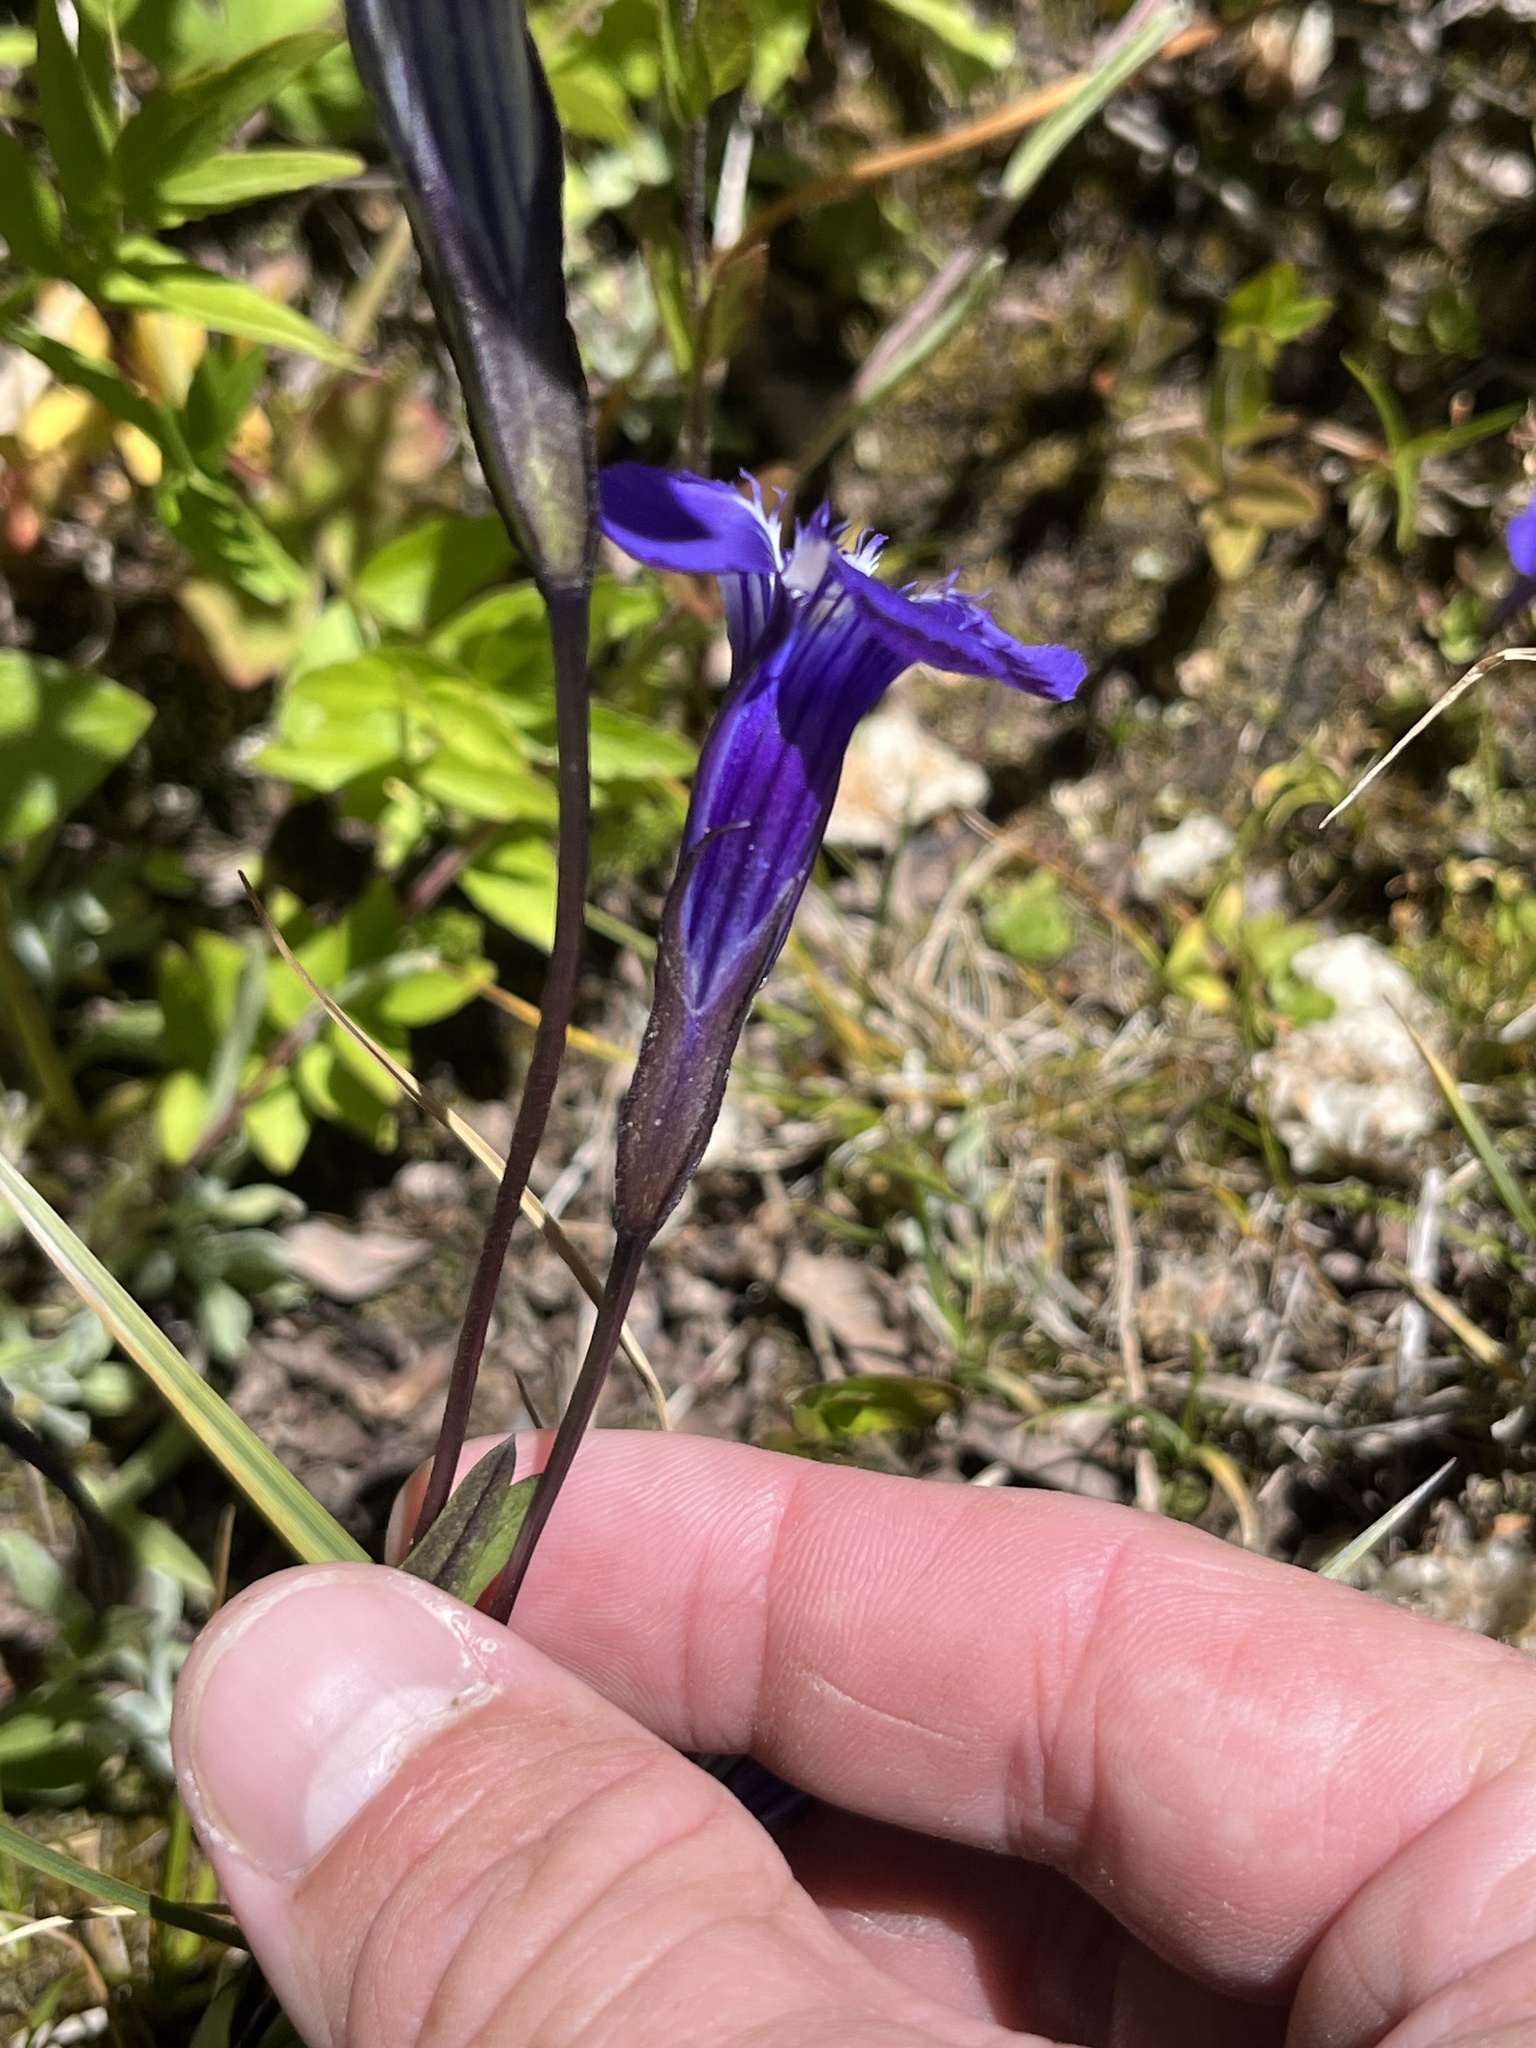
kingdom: Plantae
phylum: Tracheophyta
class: Magnoliopsida
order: Gentianales
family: Gentianaceae
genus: Gentianopsis
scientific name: Gentianopsis thermalis
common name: Rocky mountain fringed-gentian
